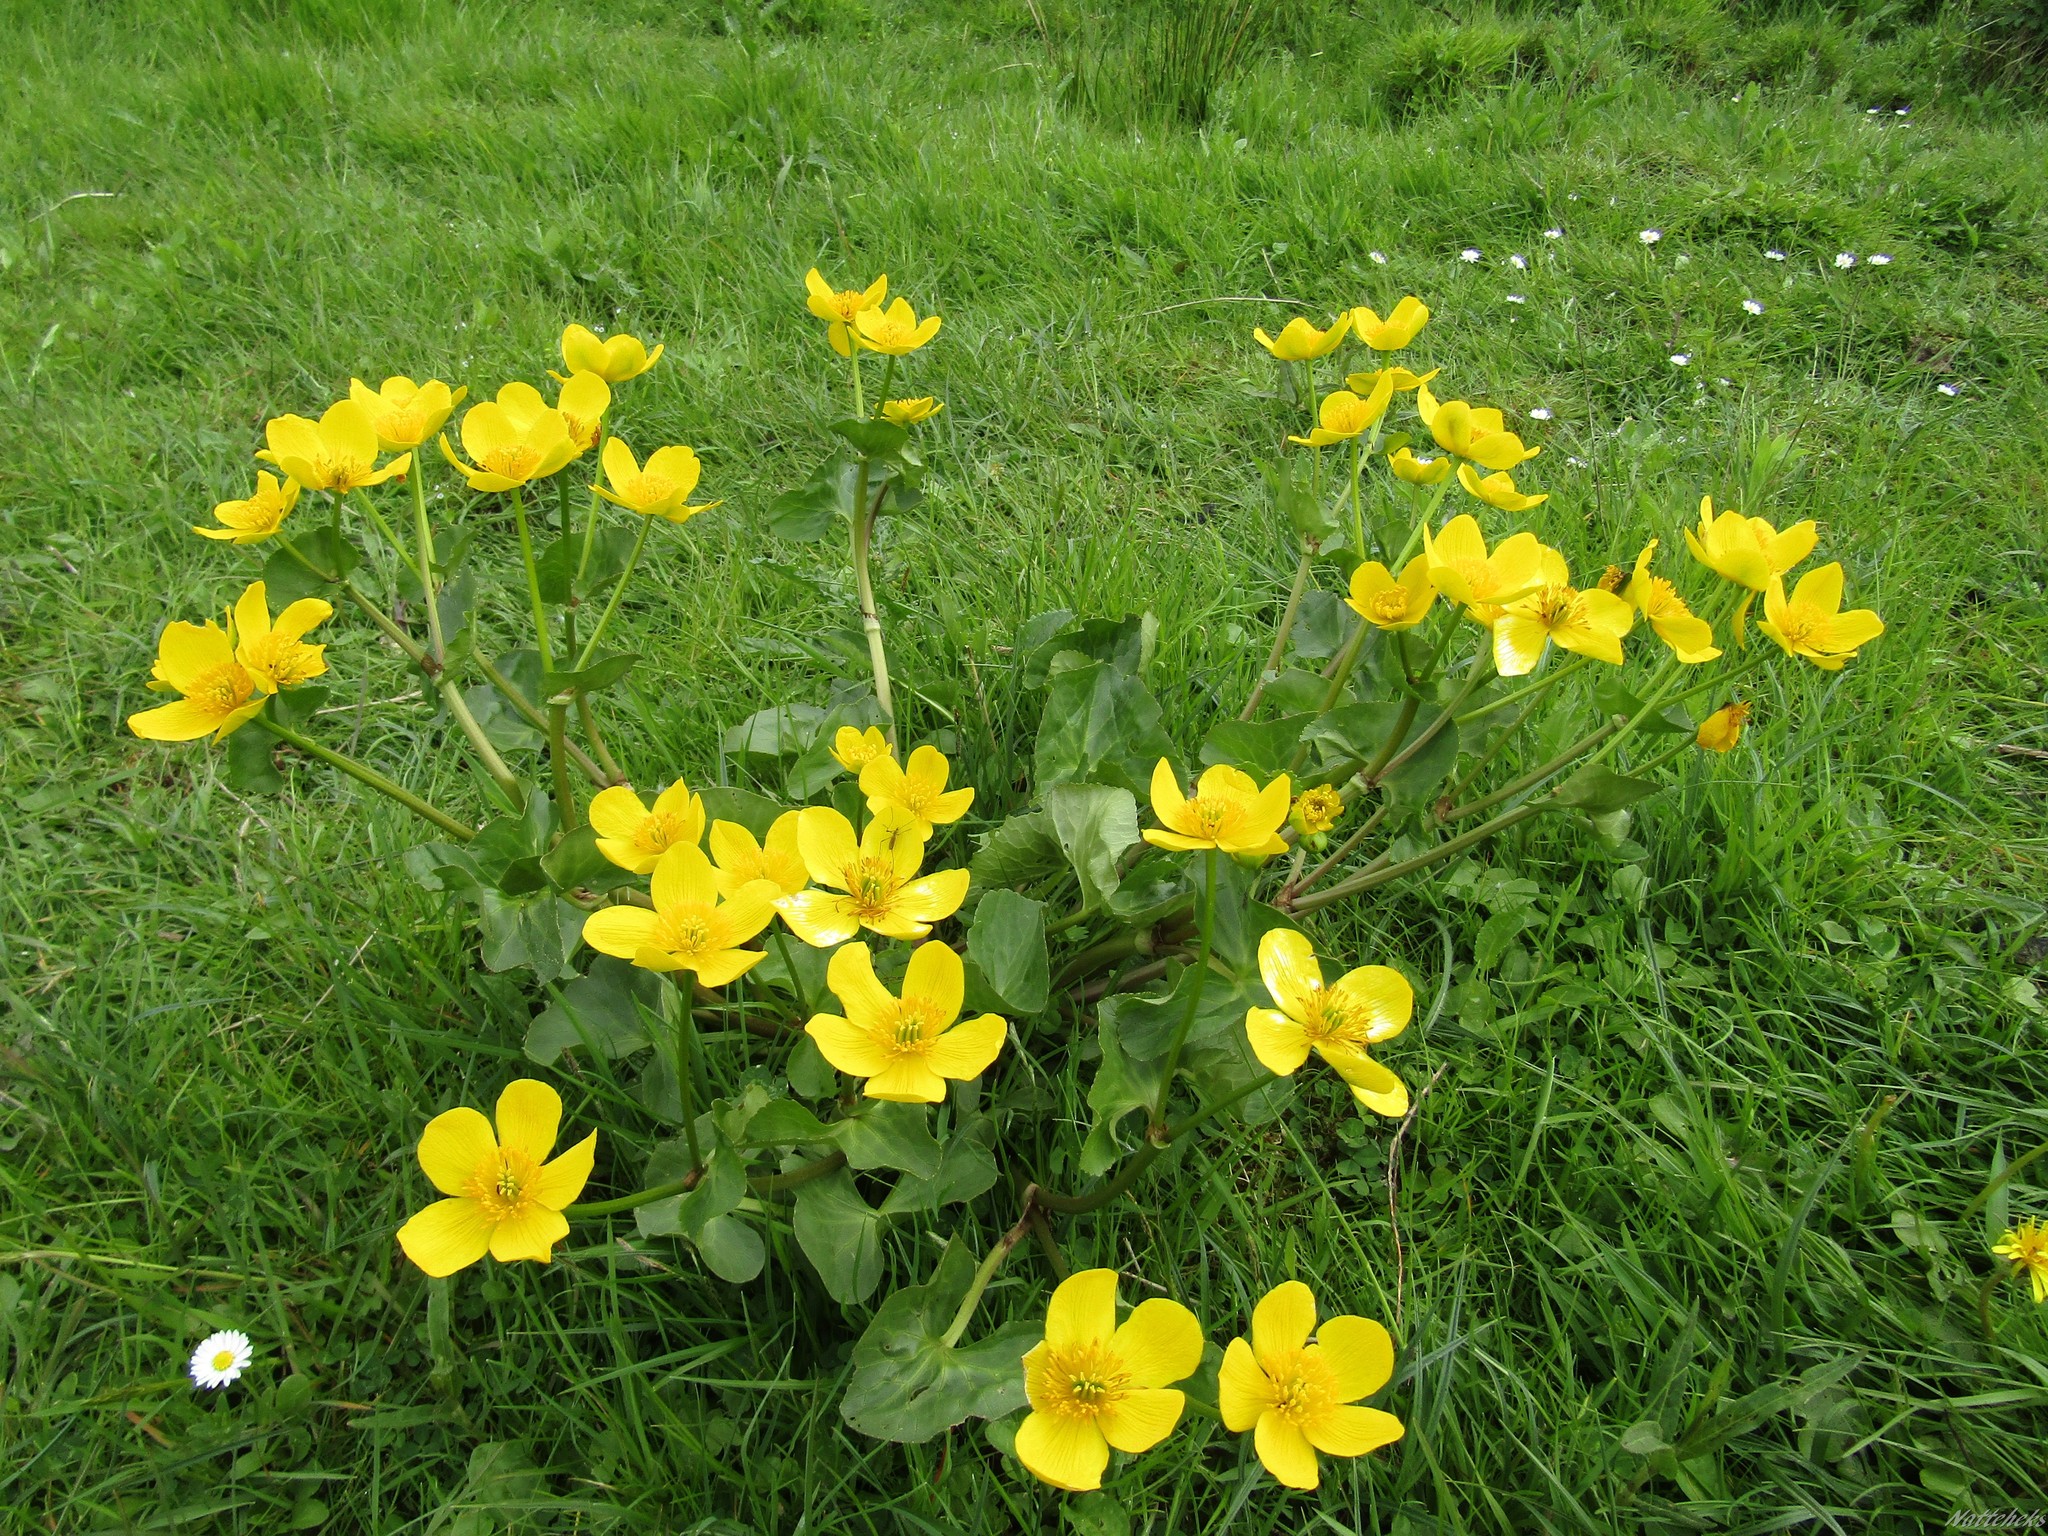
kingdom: Plantae
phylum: Tracheophyta
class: Magnoliopsida
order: Ranunculales
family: Ranunculaceae
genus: Caltha
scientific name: Caltha palustris
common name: Marsh marigold
